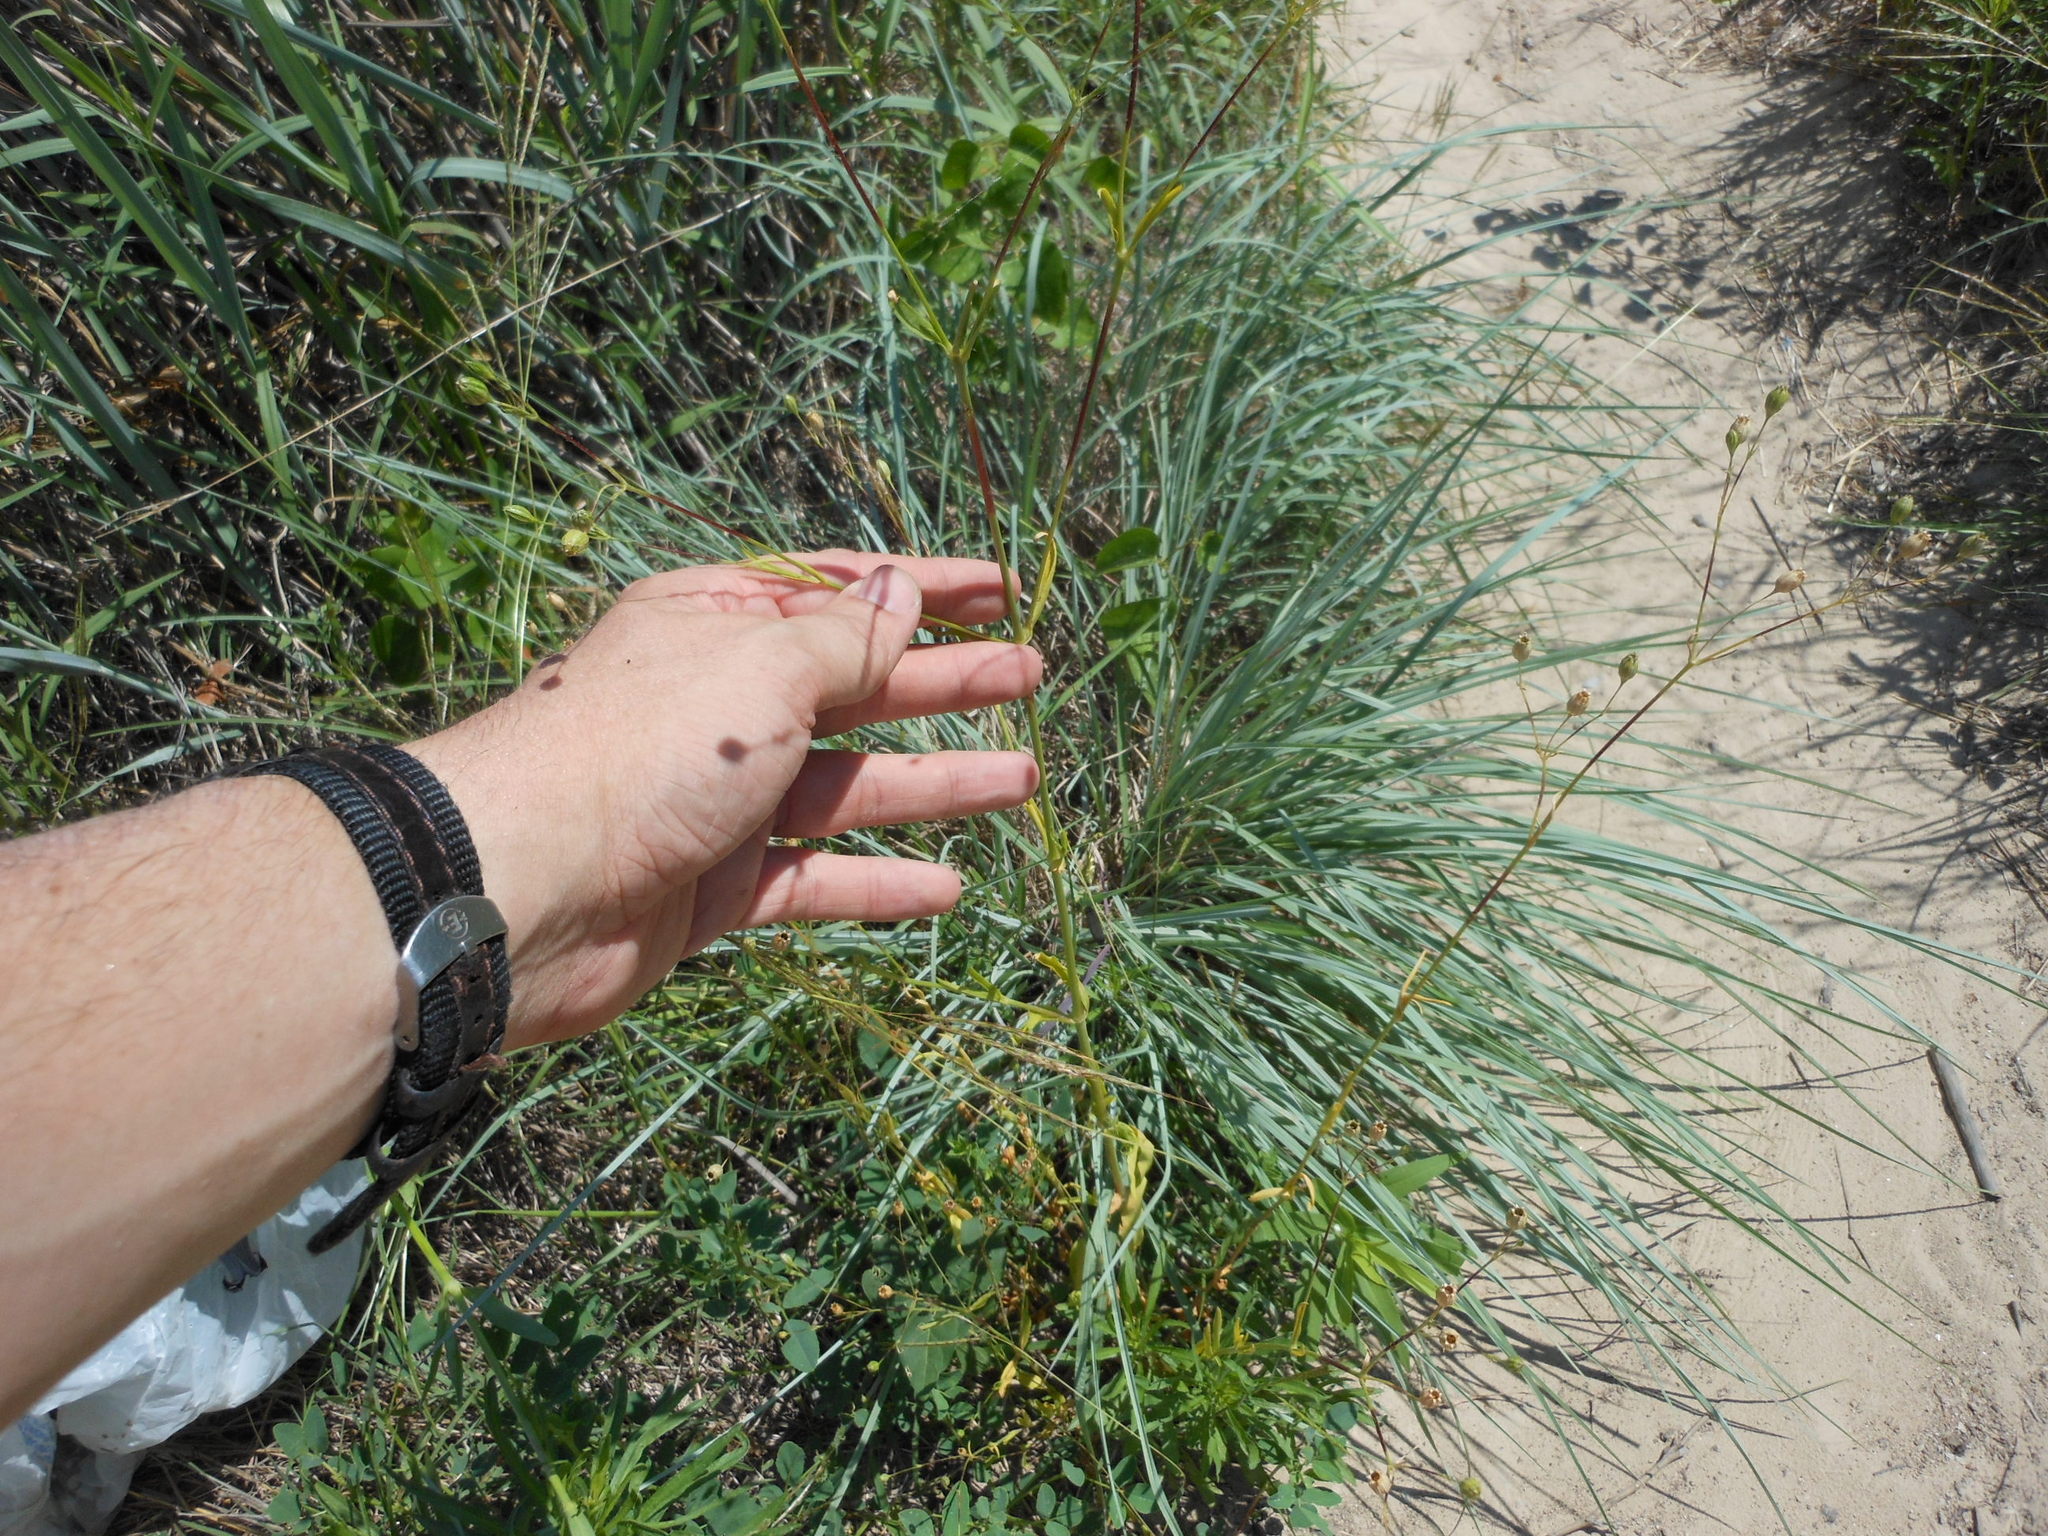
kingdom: Plantae
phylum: Tracheophyta
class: Magnoliopsida
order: Caryophyllales
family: Caryophyllaceae
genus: Silene
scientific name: Silene antirrhina
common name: Sleepy catchfly
